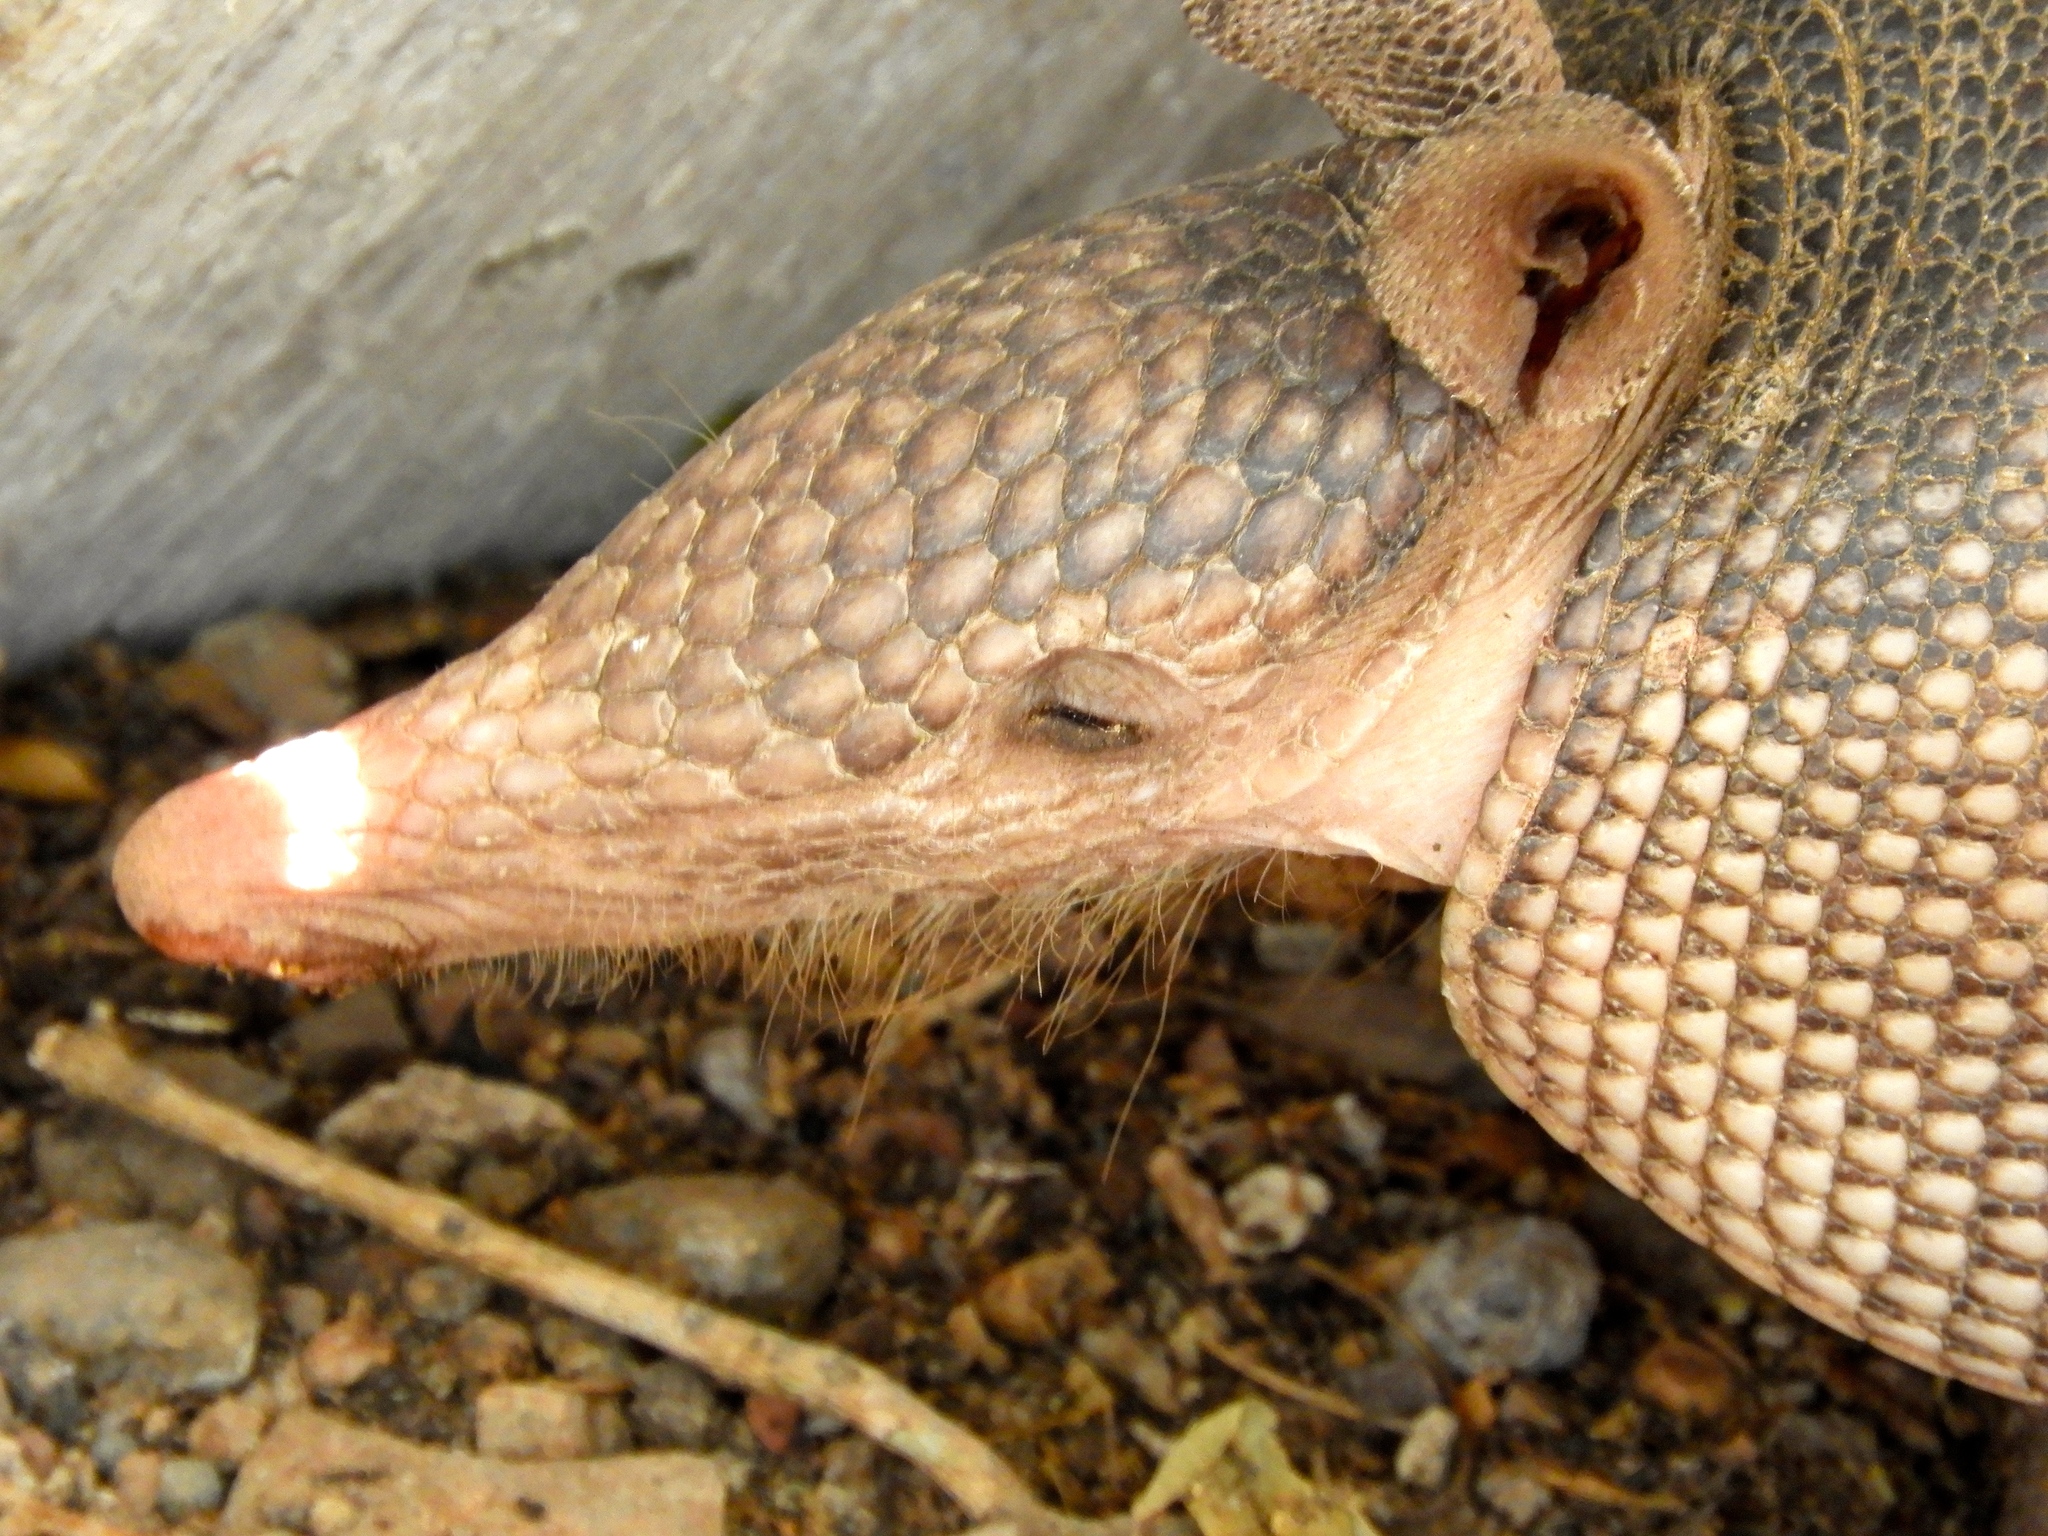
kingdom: Animalia
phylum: Chordata
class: Mammalia
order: Cingulata
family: Dasypodidae
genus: Dasypus
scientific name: Dasypus novemcinctus
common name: Nine-banded armadillo
